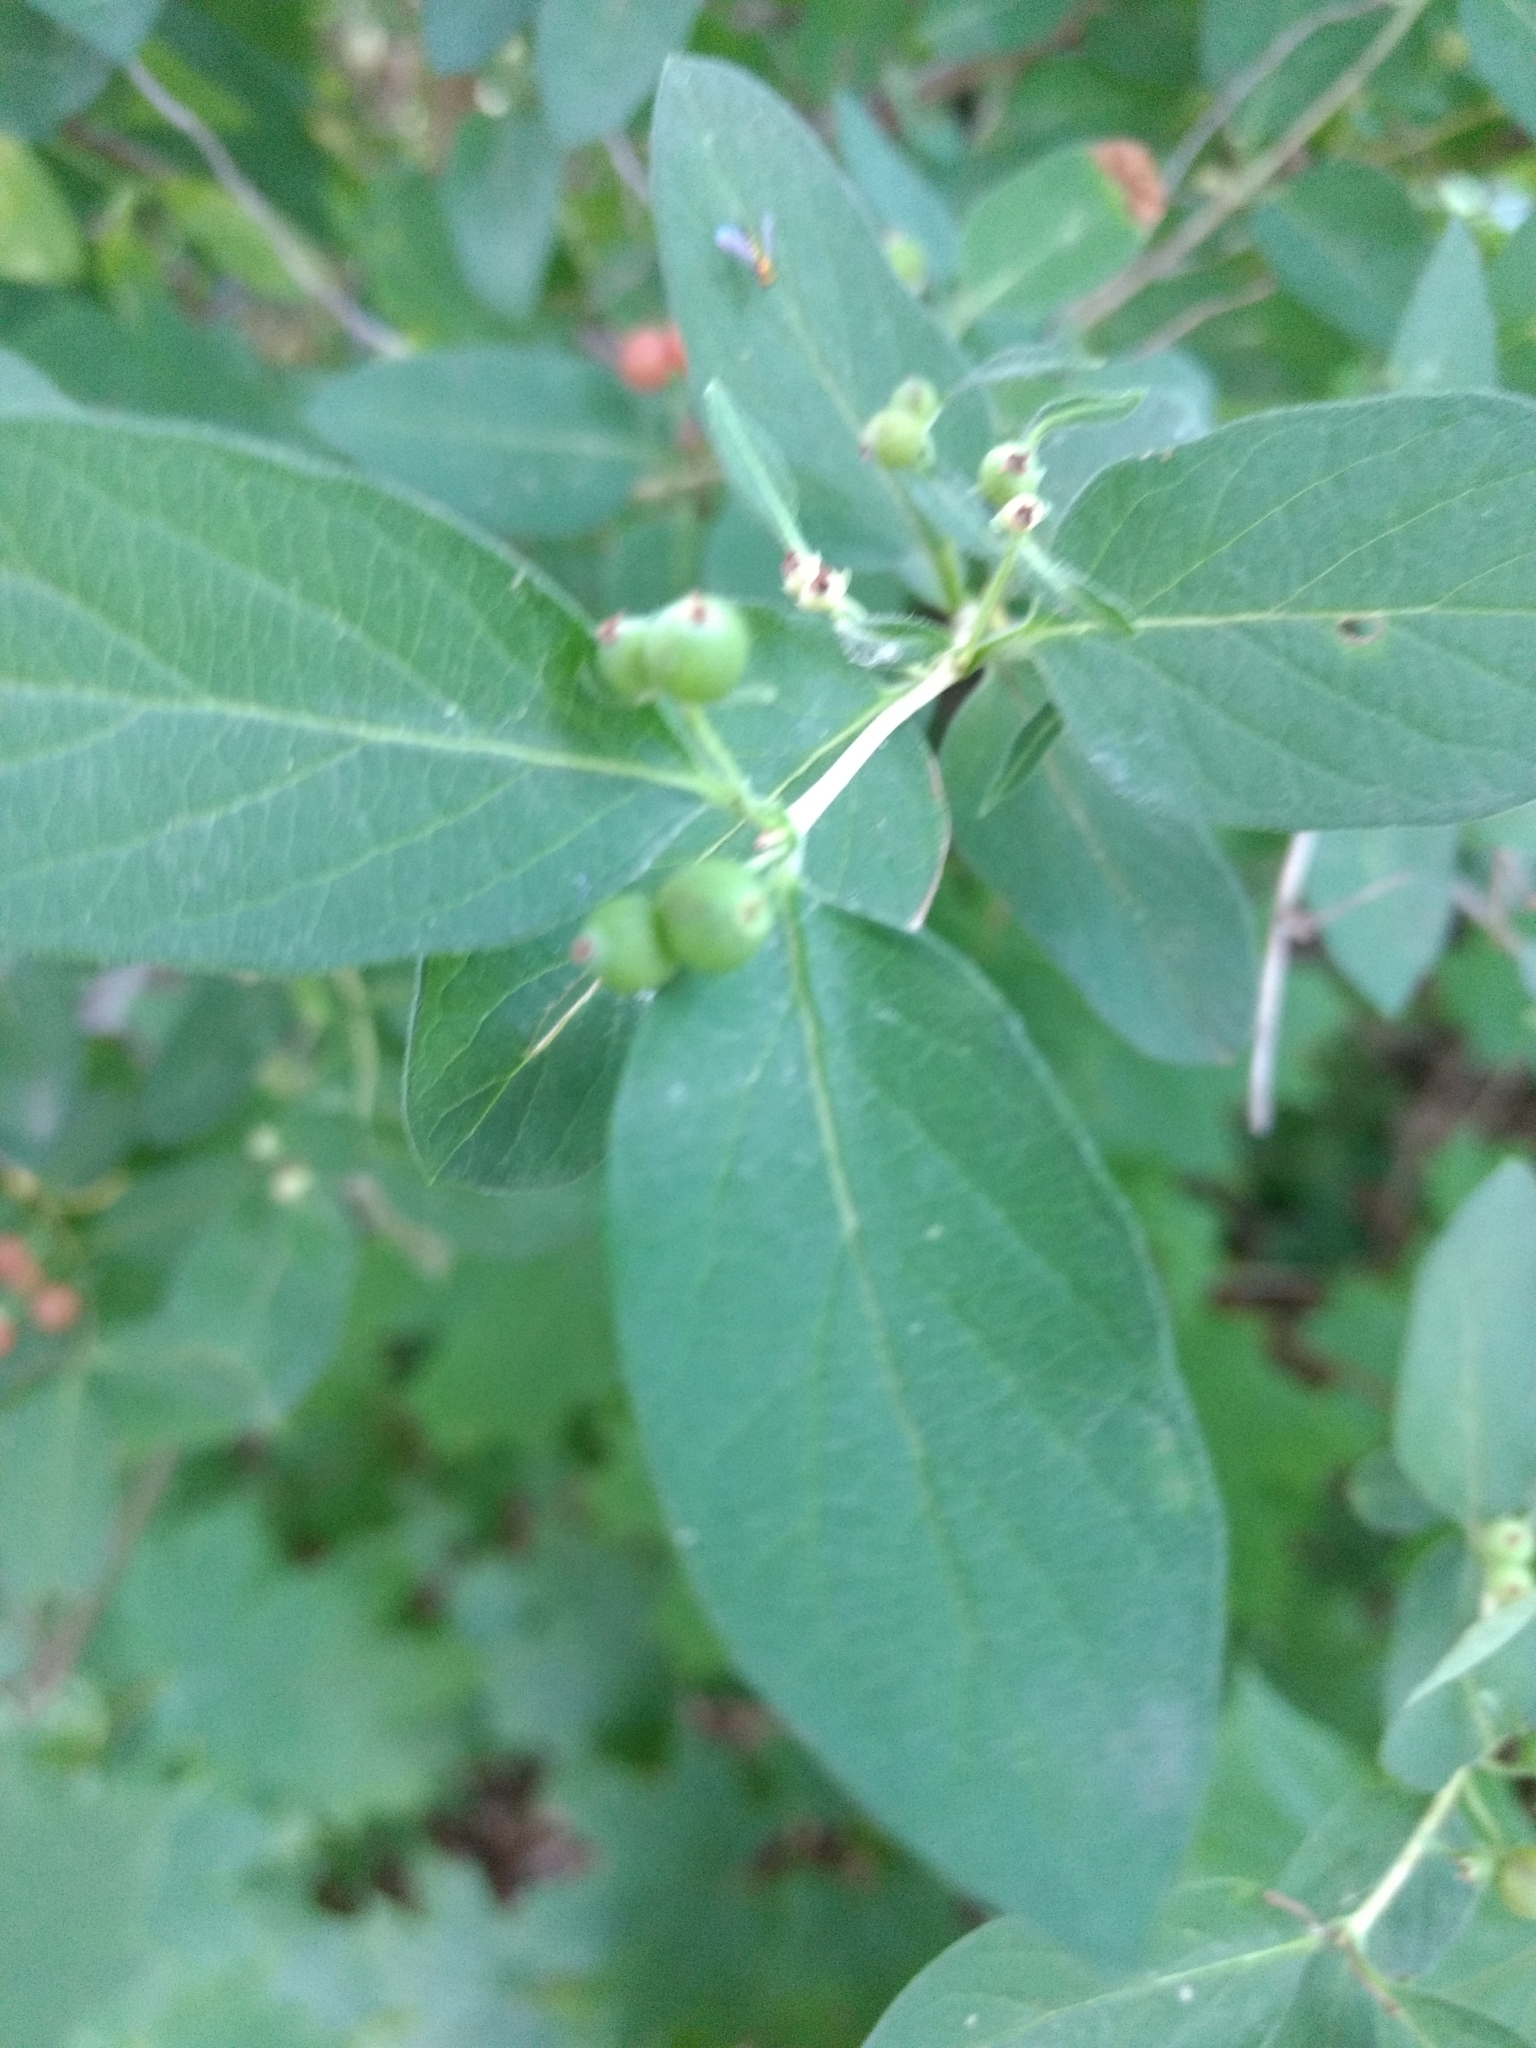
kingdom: Plantae
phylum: Tracheophyta
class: Magnoliopsida
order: Dipsacales
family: Caprifoliaceae
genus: Lonicera
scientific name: Lonicera
